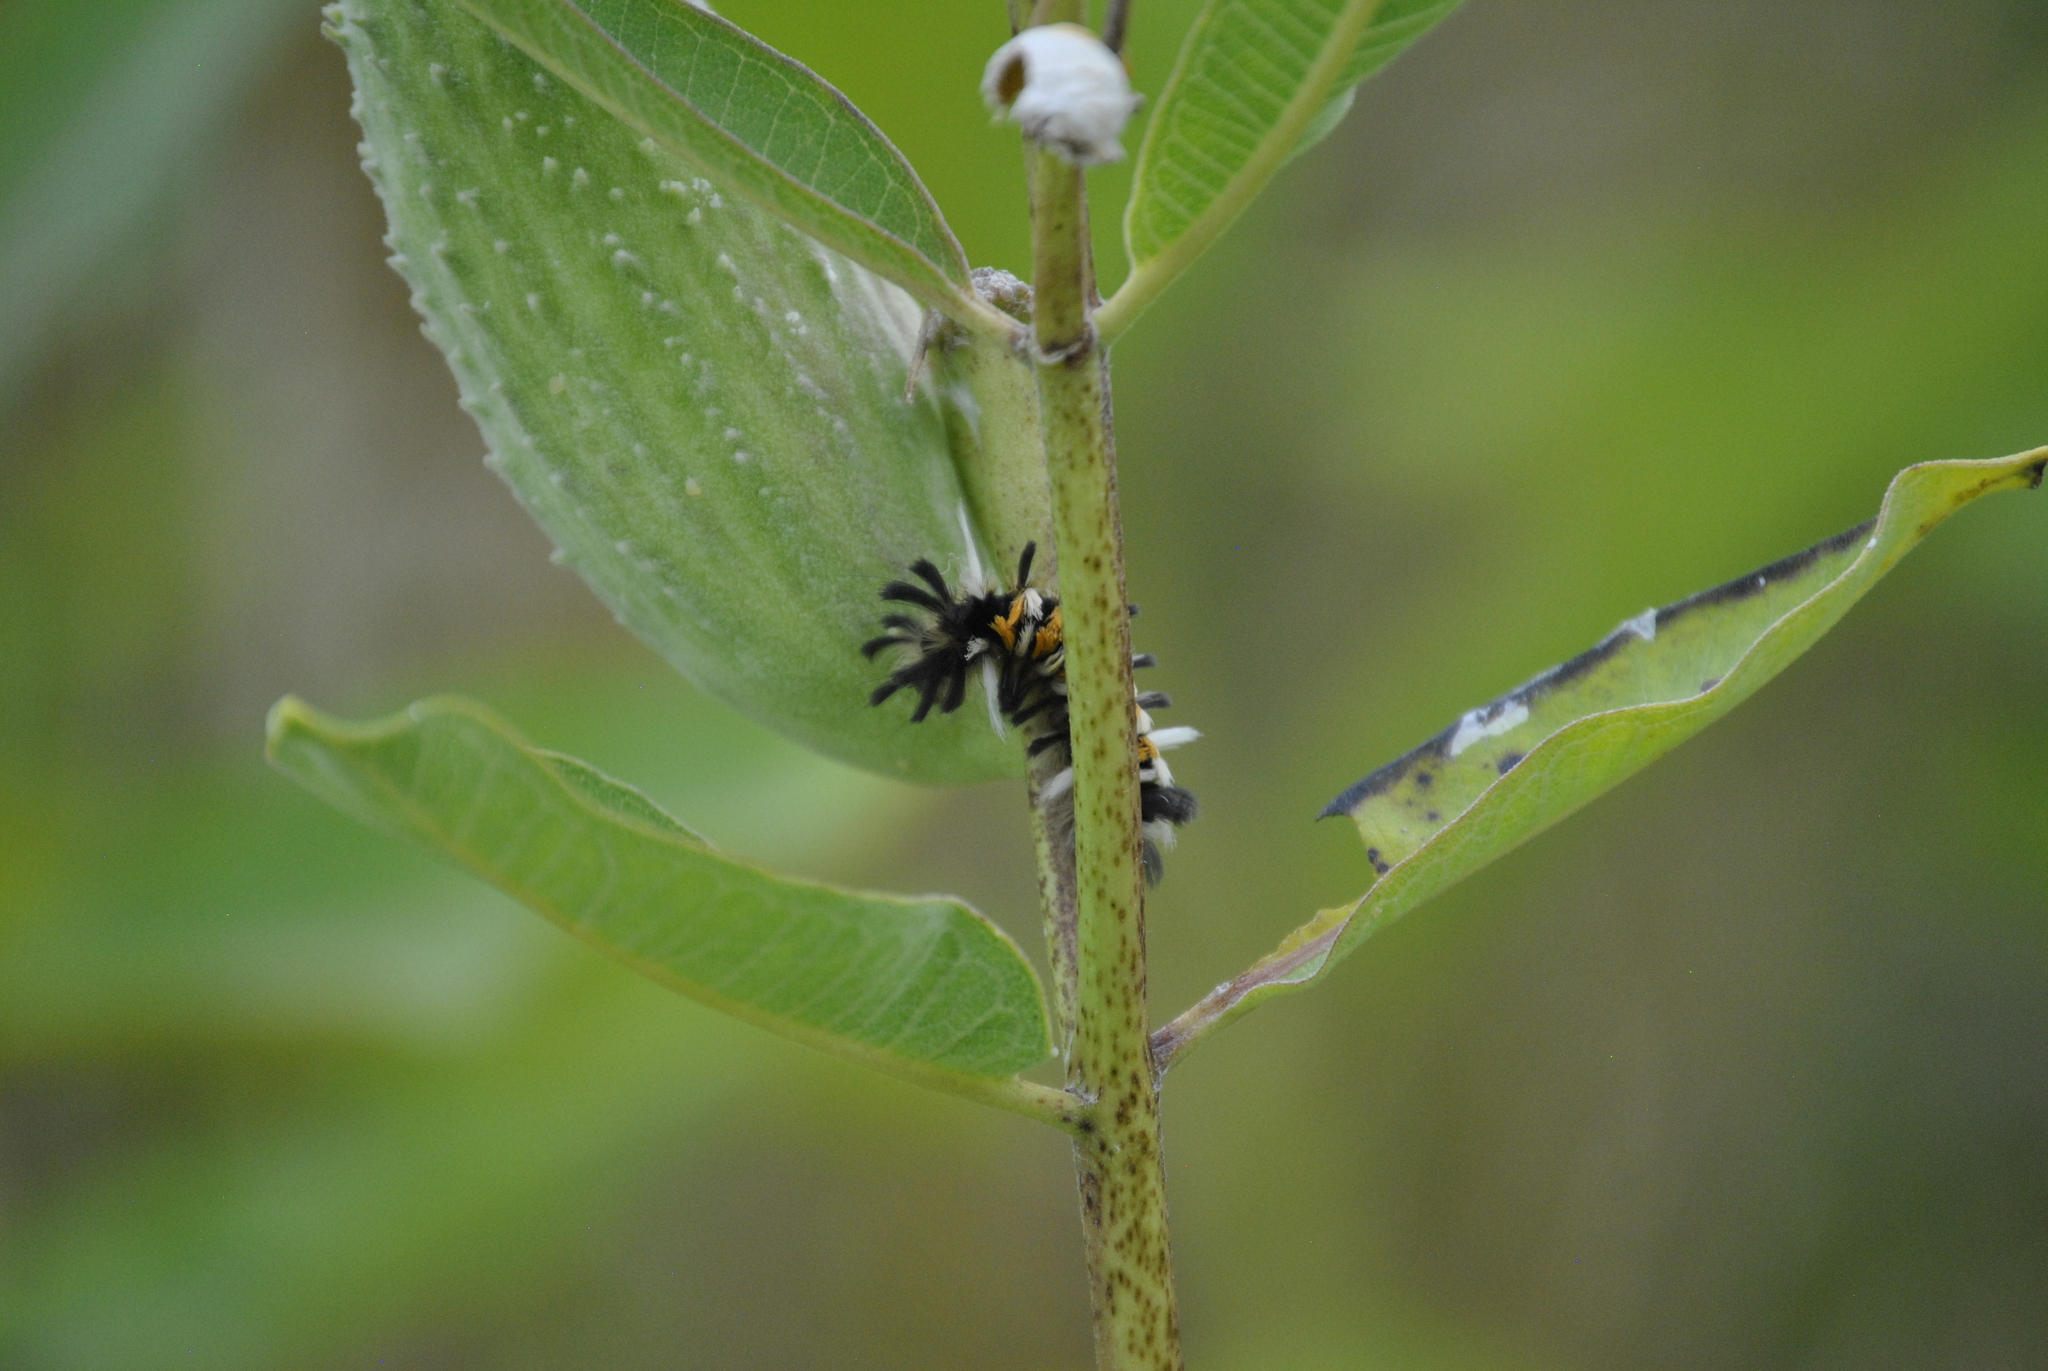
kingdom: Animalia
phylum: Arthropoda
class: Insecta
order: Lepidoptera
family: Erebidae
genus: Euchaetes
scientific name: Euchaetes egle
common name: Milkweed tussock moth
